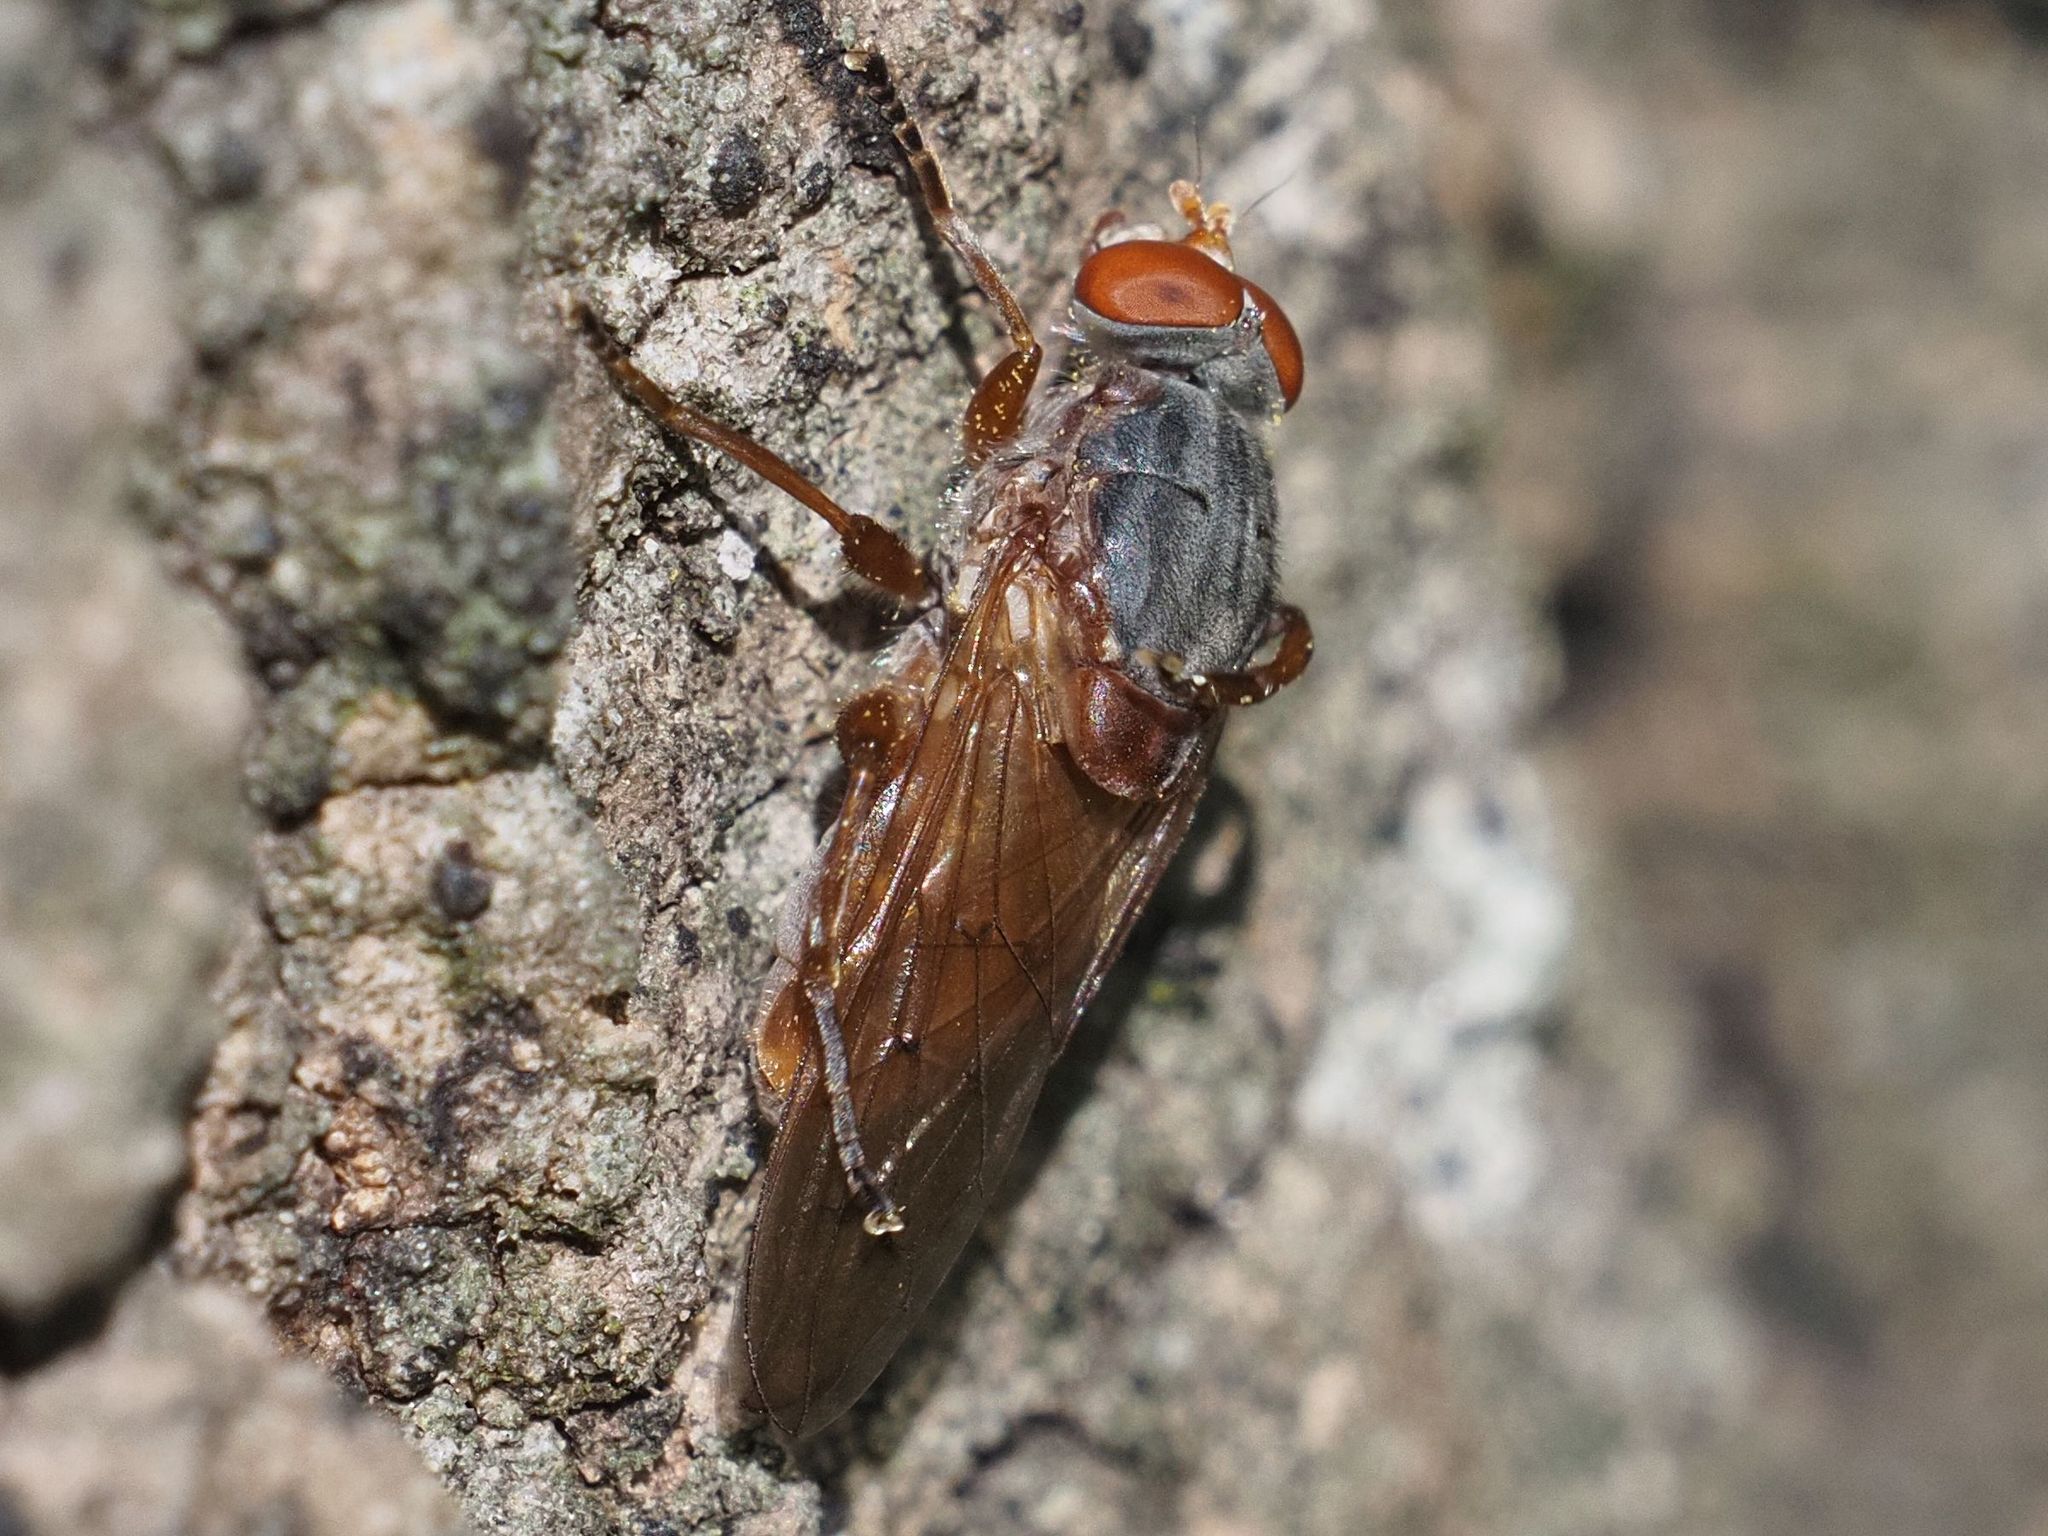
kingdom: Animalia
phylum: Arthropoda
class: Insecta
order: Diptera
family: Syrphidae
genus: Brachyopa
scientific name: Brachyopa maculipennis
